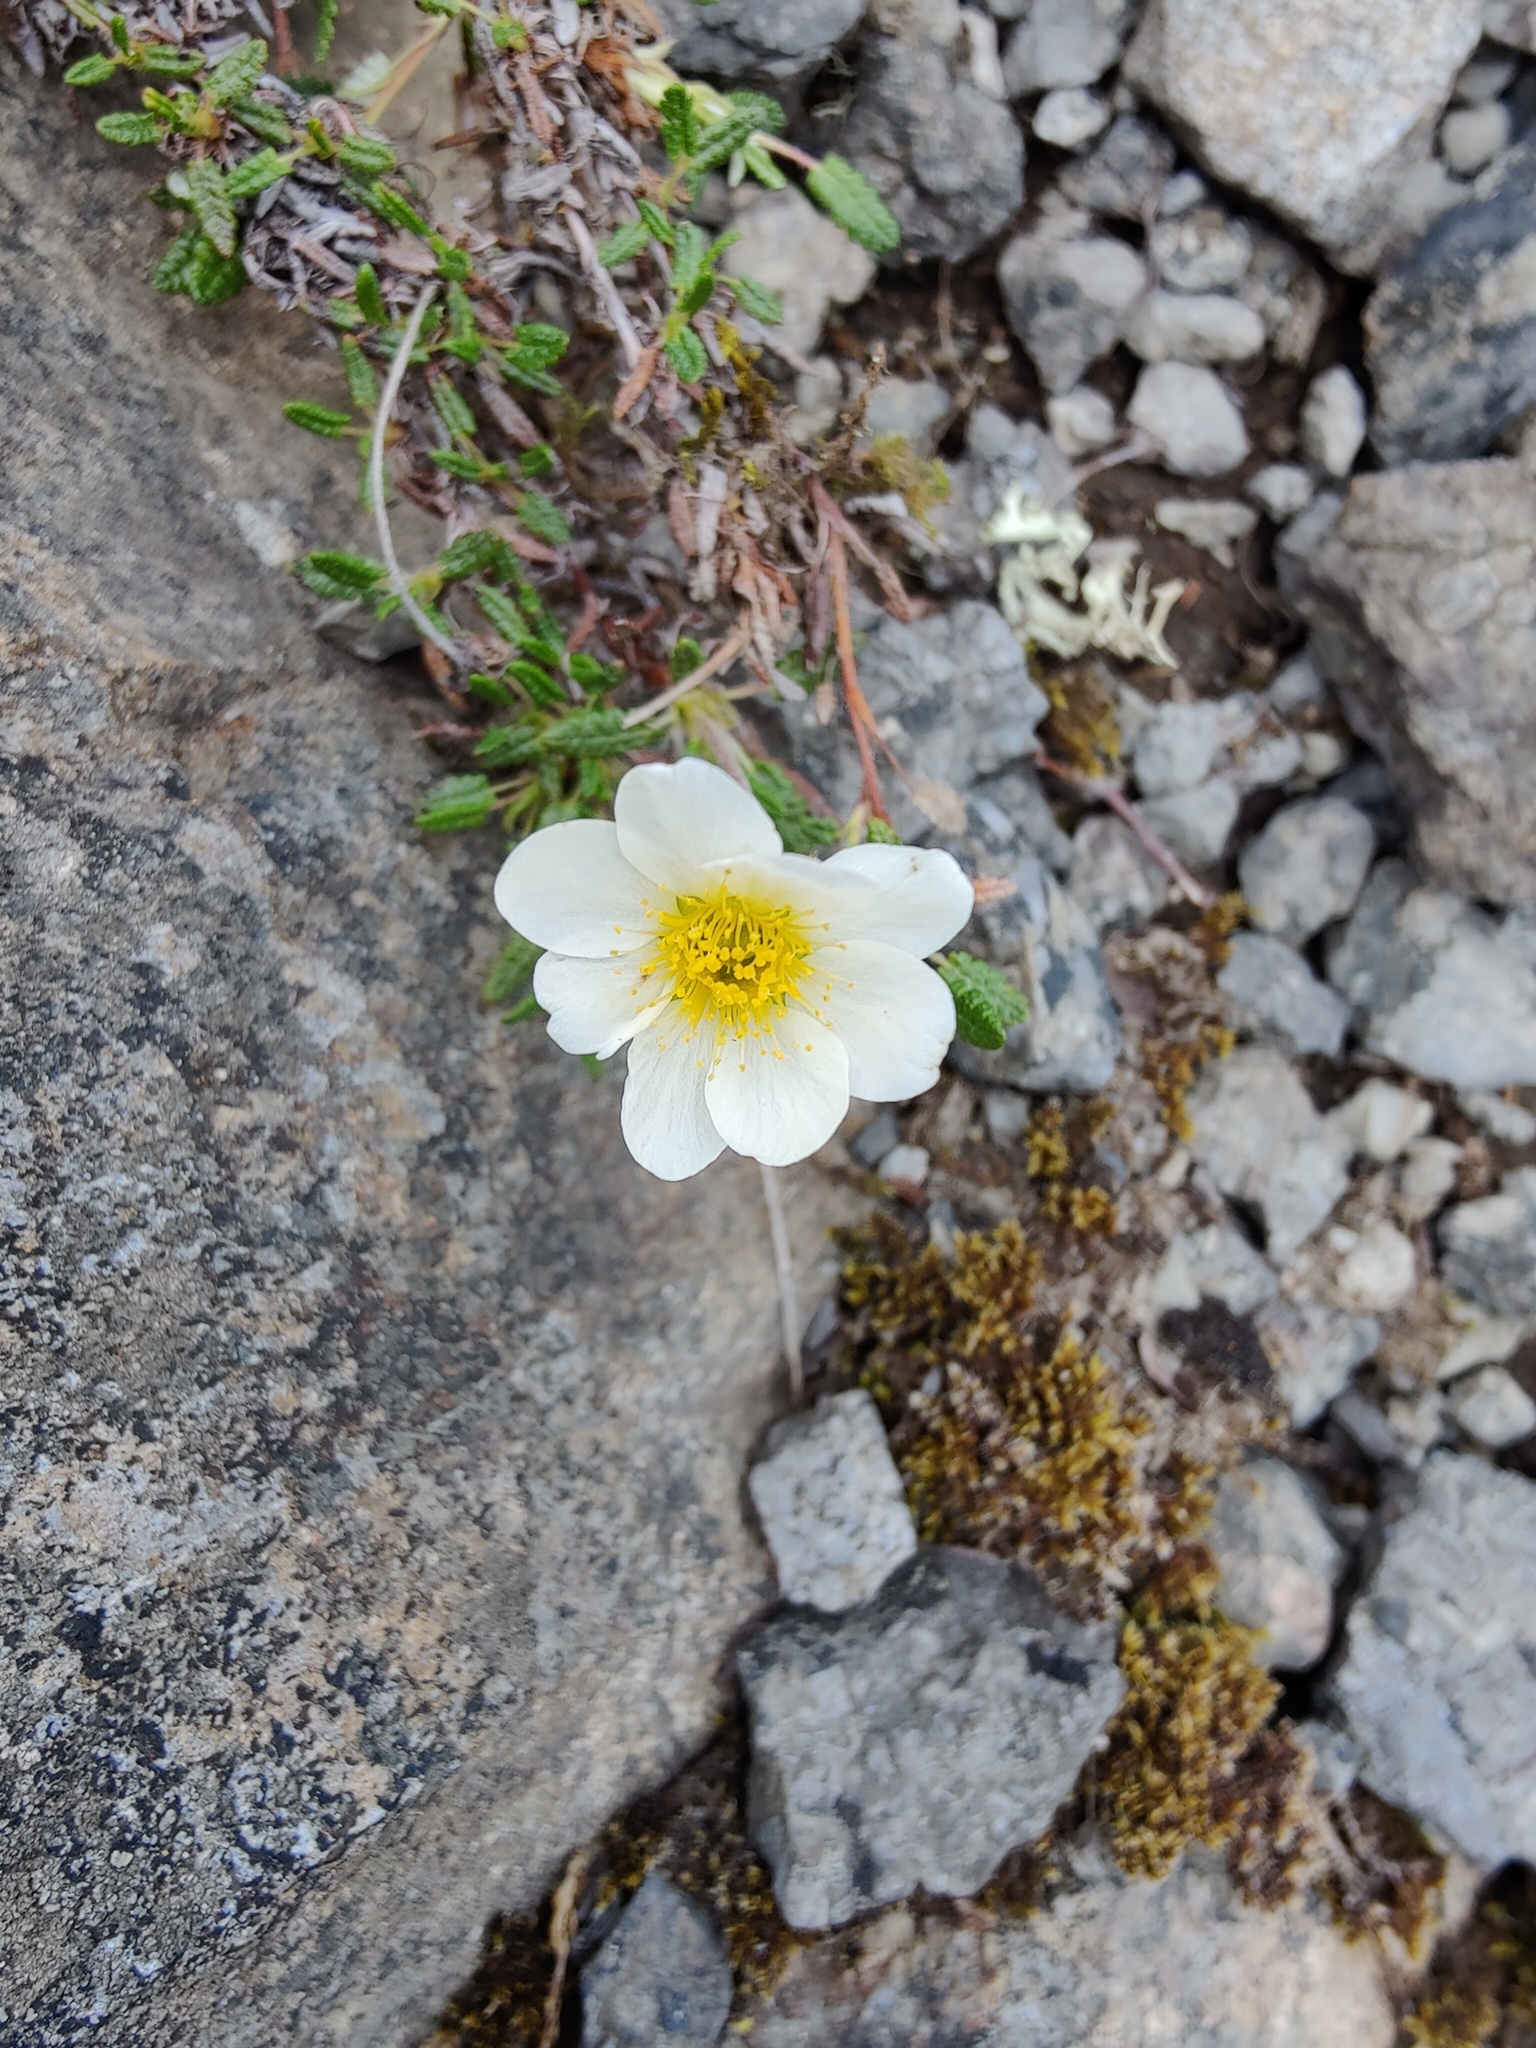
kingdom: Plantae
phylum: Tracheophyta
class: Magnoliopsida
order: Rosales
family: Rosaceae
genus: Dryas
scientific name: Dryas octopetala
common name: Eight-petal mountain-avens
